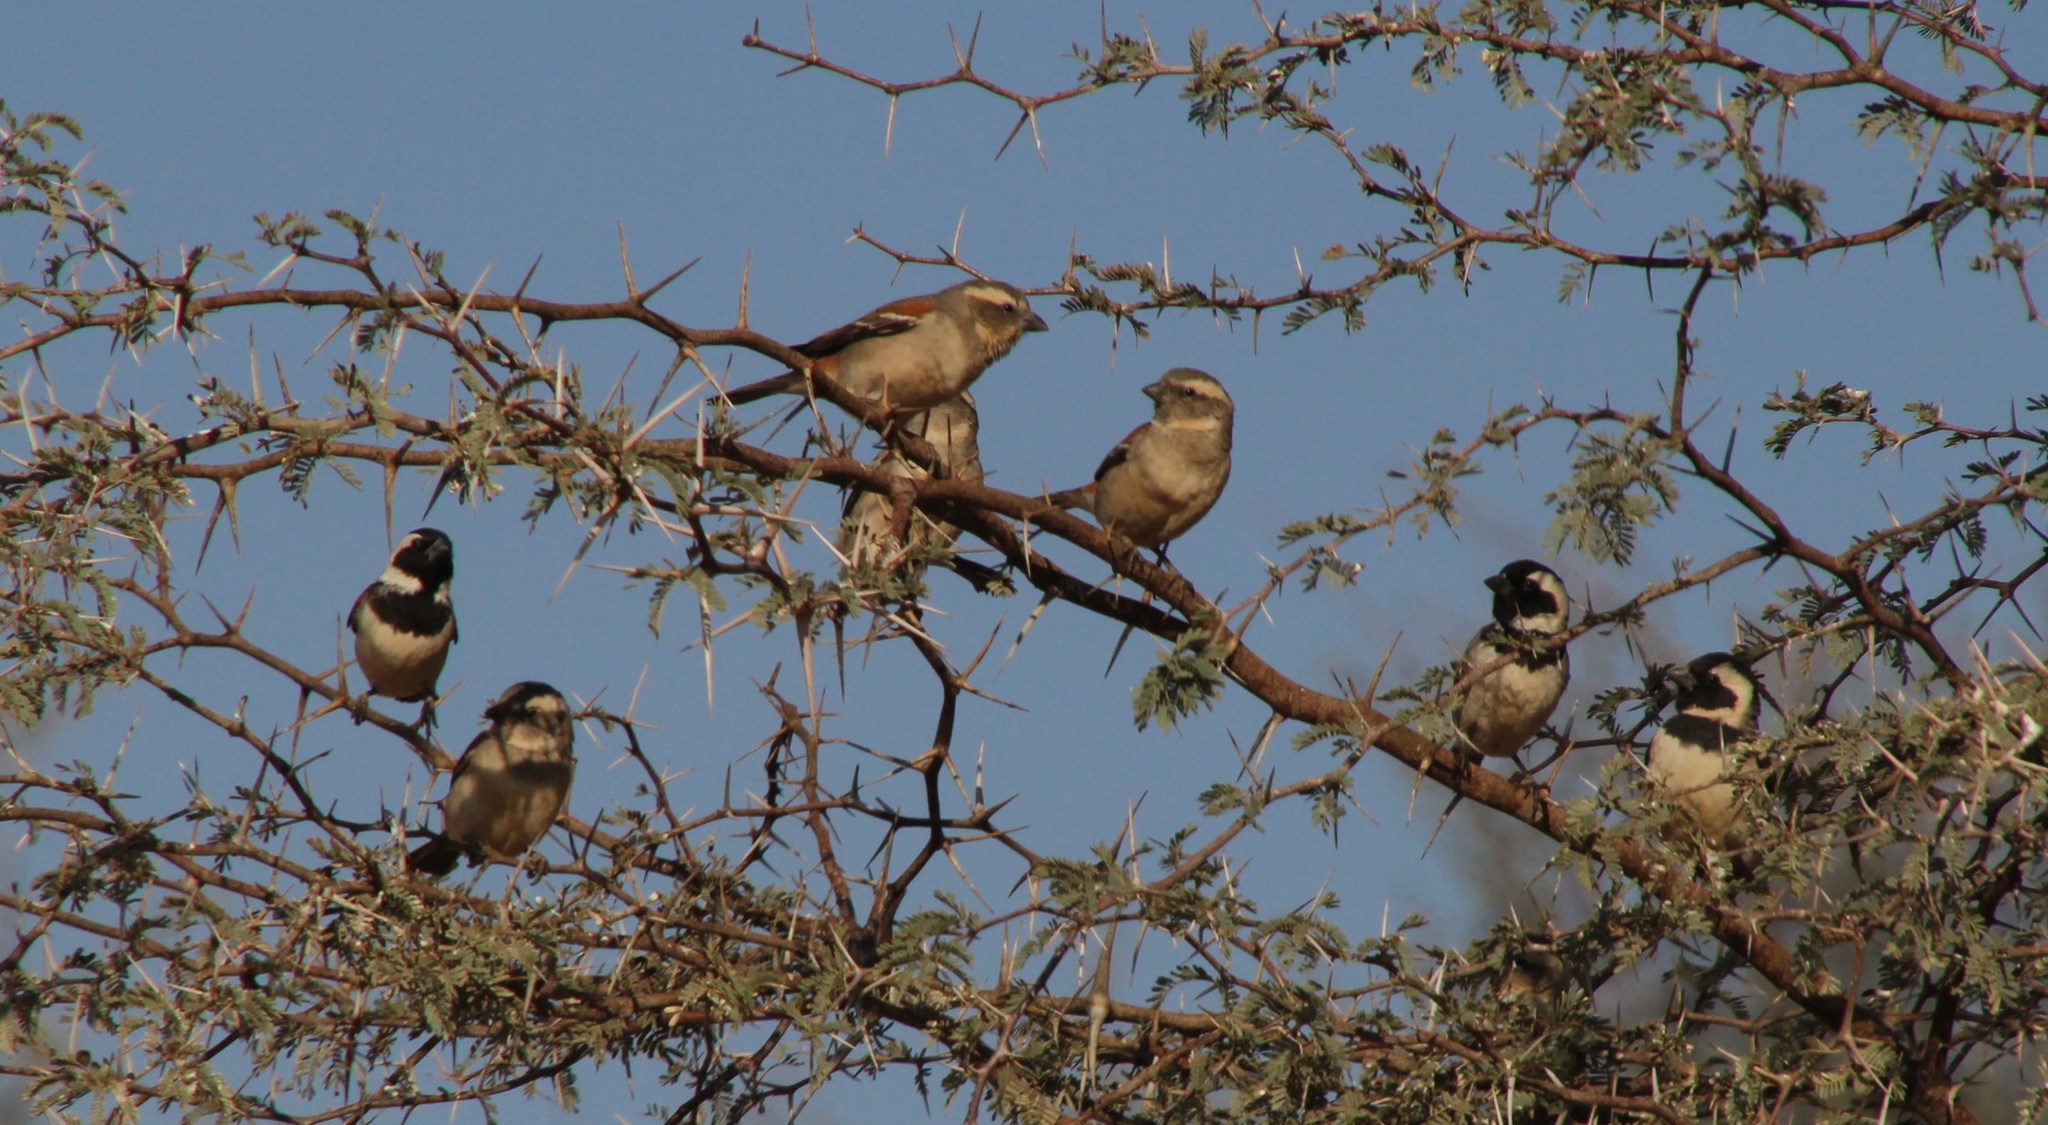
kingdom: Animalia
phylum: Chordata
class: Aves
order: Passeriformes
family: Passeridae
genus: Passer
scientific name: Passer melanurus
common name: Cape sparrow
